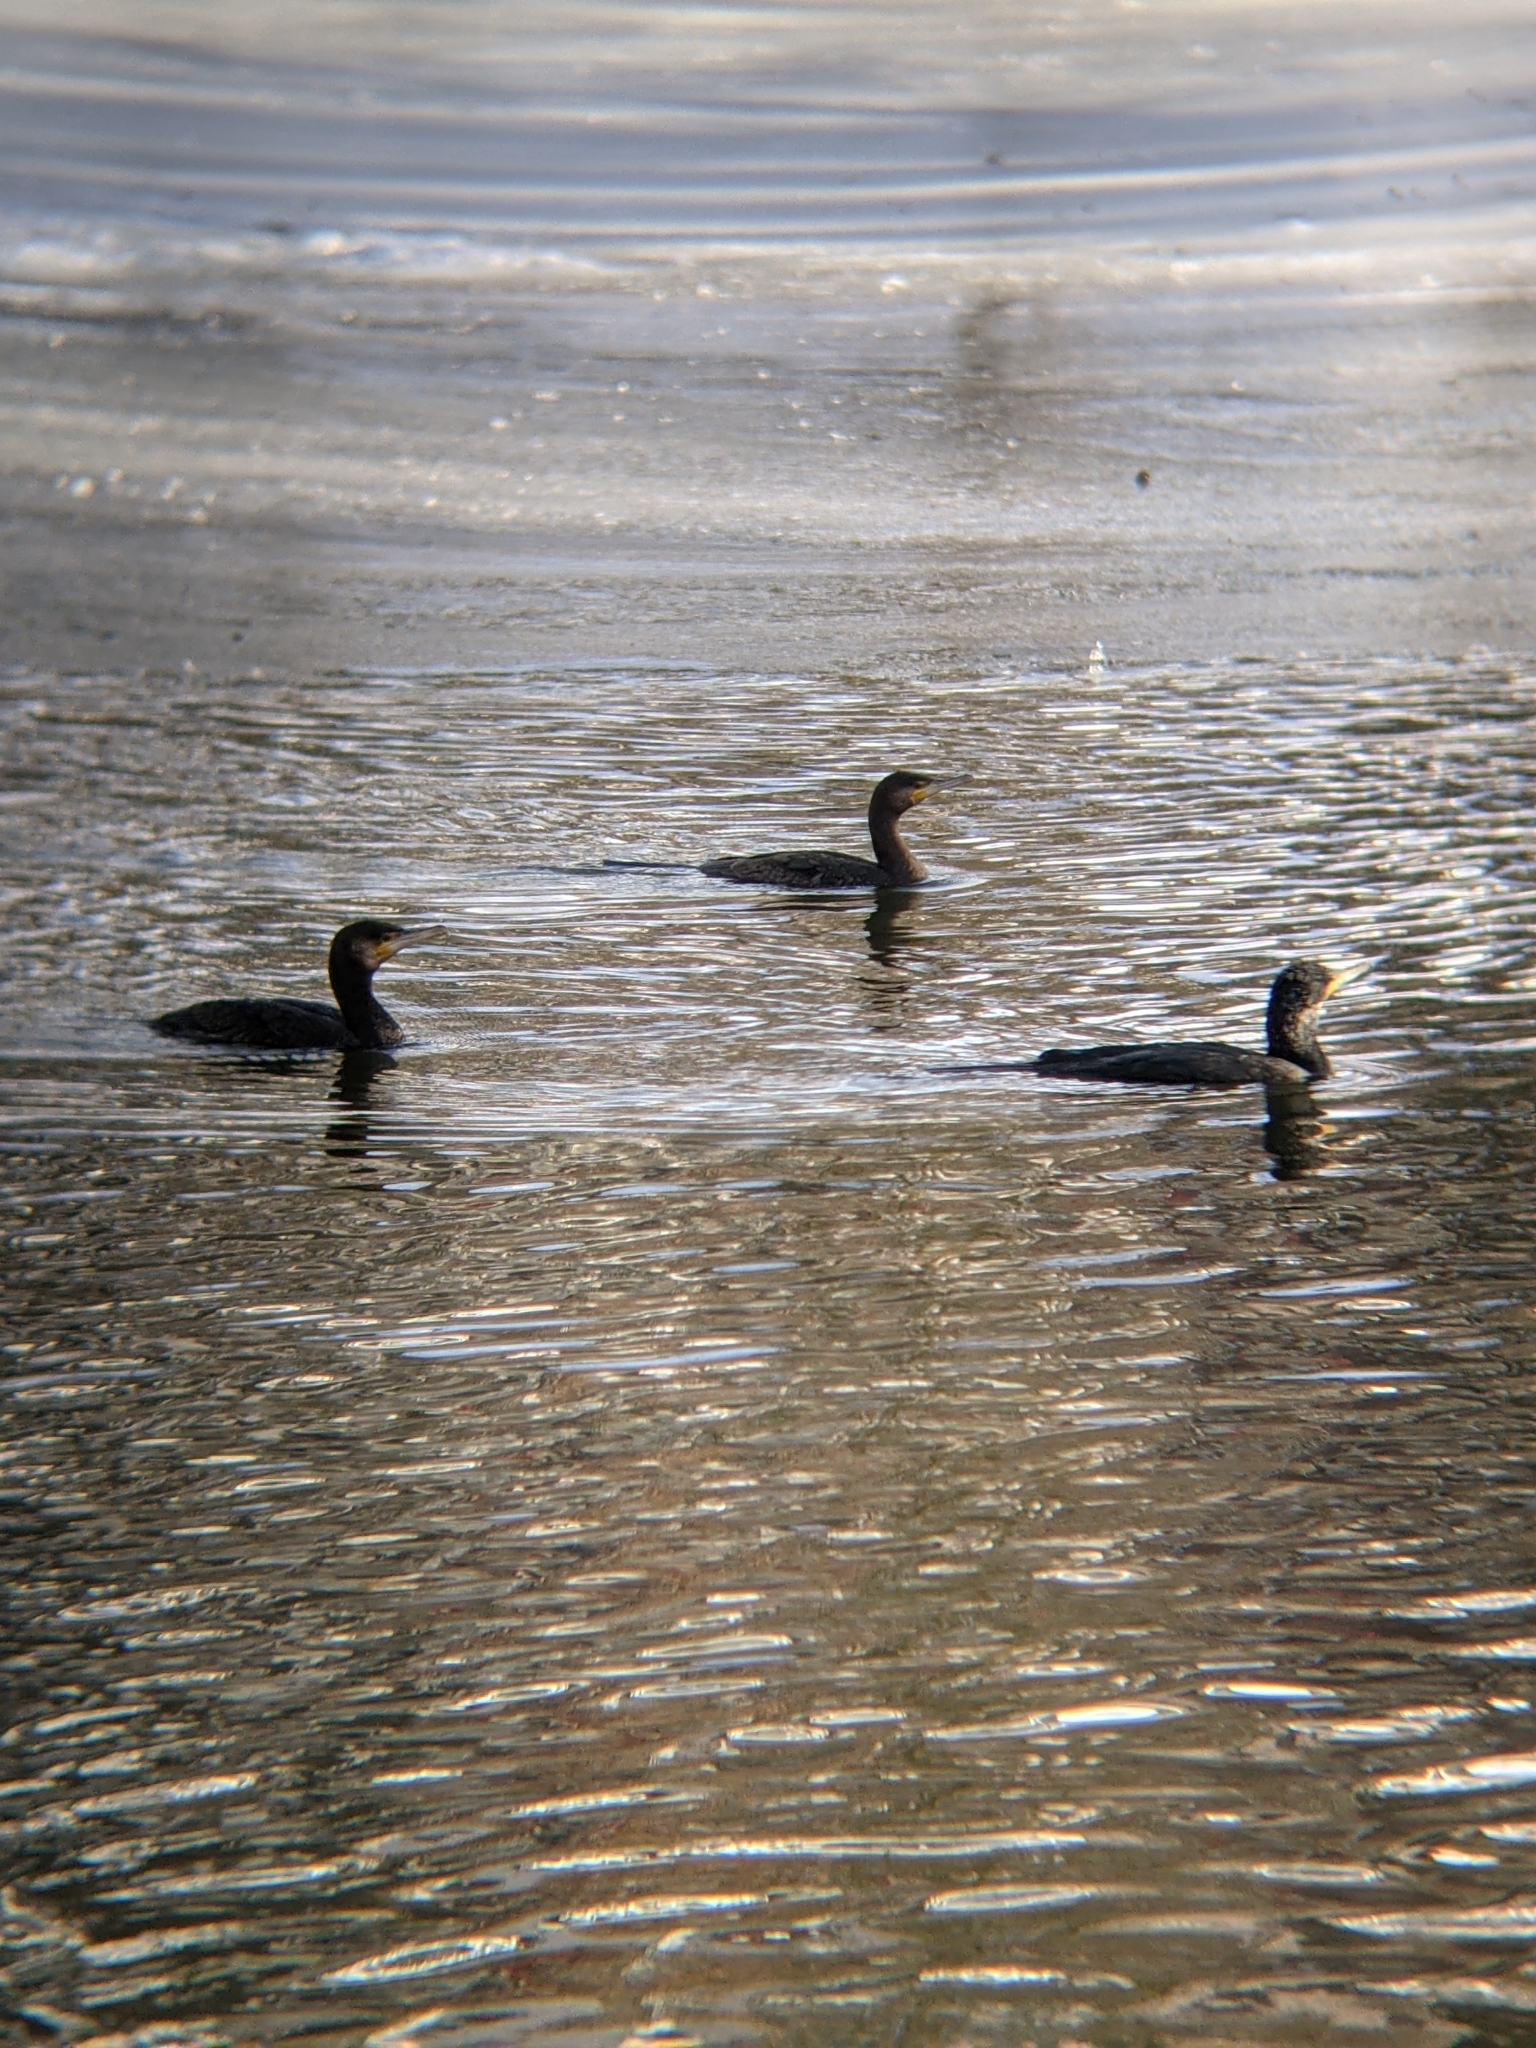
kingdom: Animalia
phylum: Chordata
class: Aves
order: Suliformes
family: Phalacrocoracidae
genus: Phalacrocorax
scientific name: Phalacrocorax carbo
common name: Great cormorant
